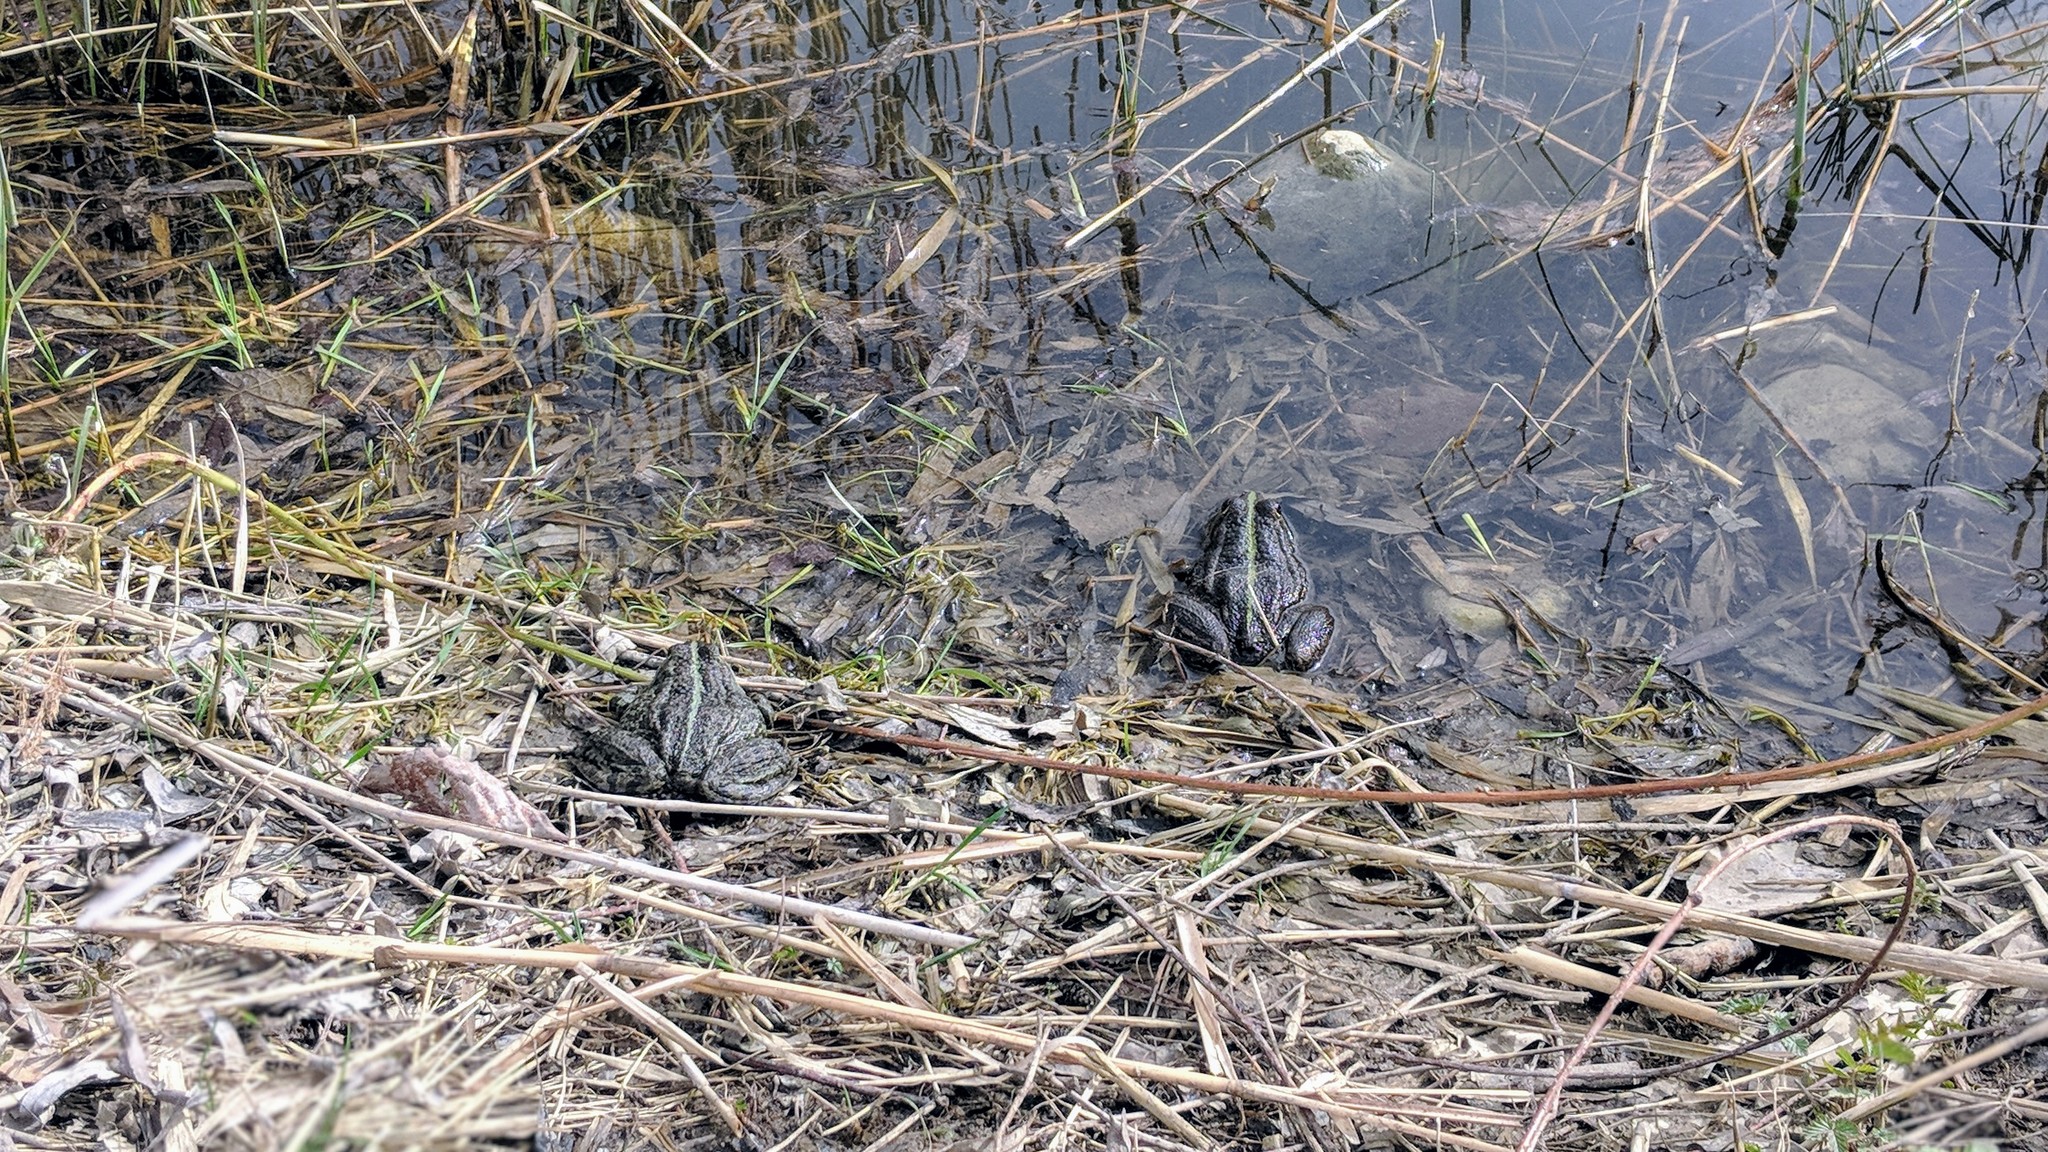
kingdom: Animalia
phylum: Chordata
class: Amphibia
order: Anura
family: Ranidae
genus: Pelophylax
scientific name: Pelophylax
